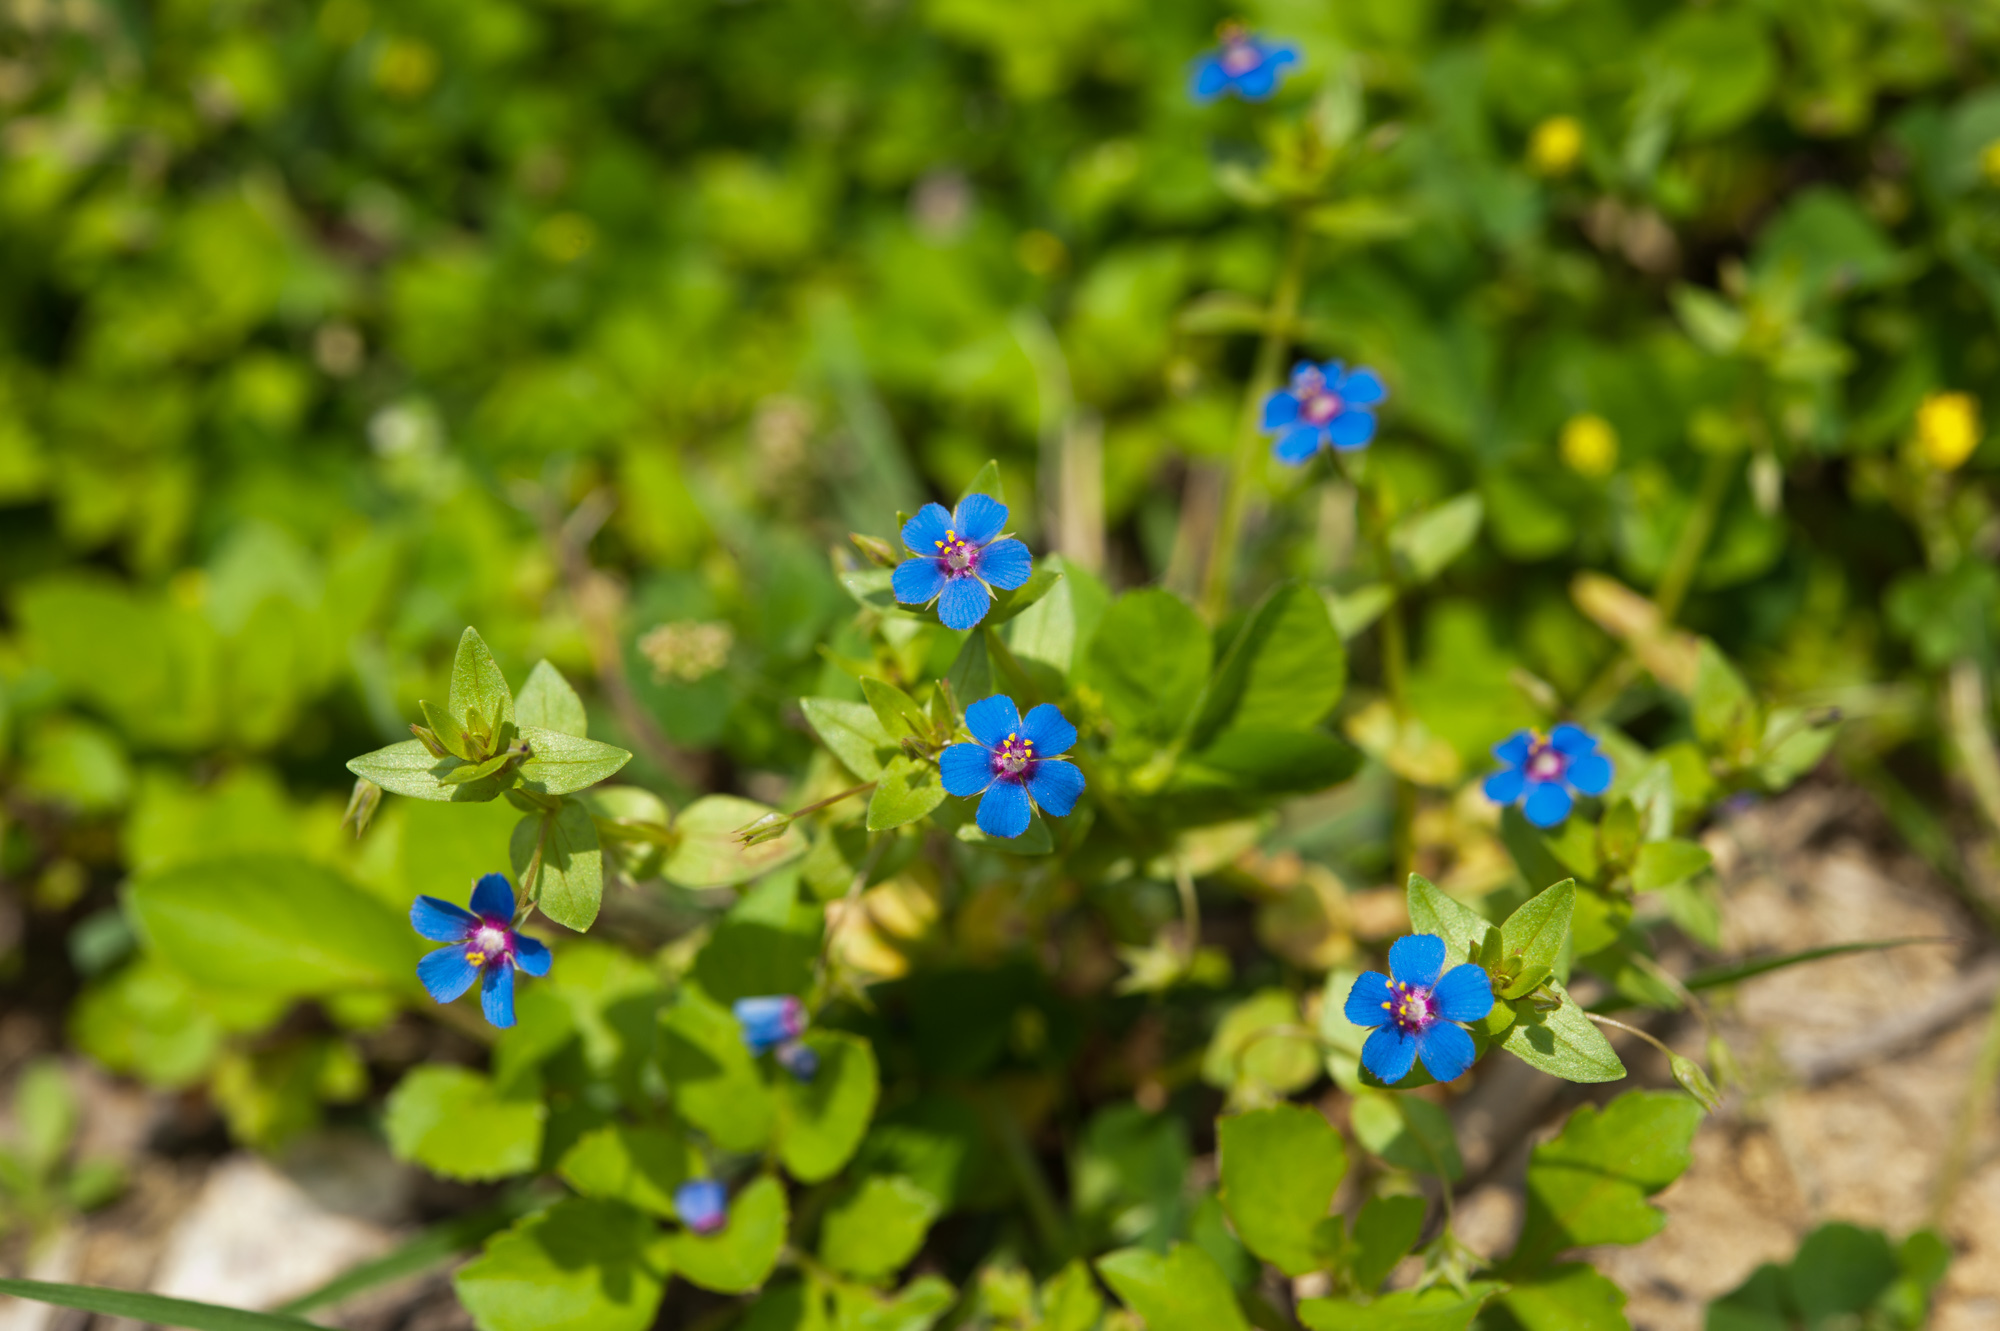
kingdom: Plantae
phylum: Tracheophyta
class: Magnoliopsida
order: Ericales
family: Primulaceae
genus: Lysimachia
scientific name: Lysimachia loeflingii
